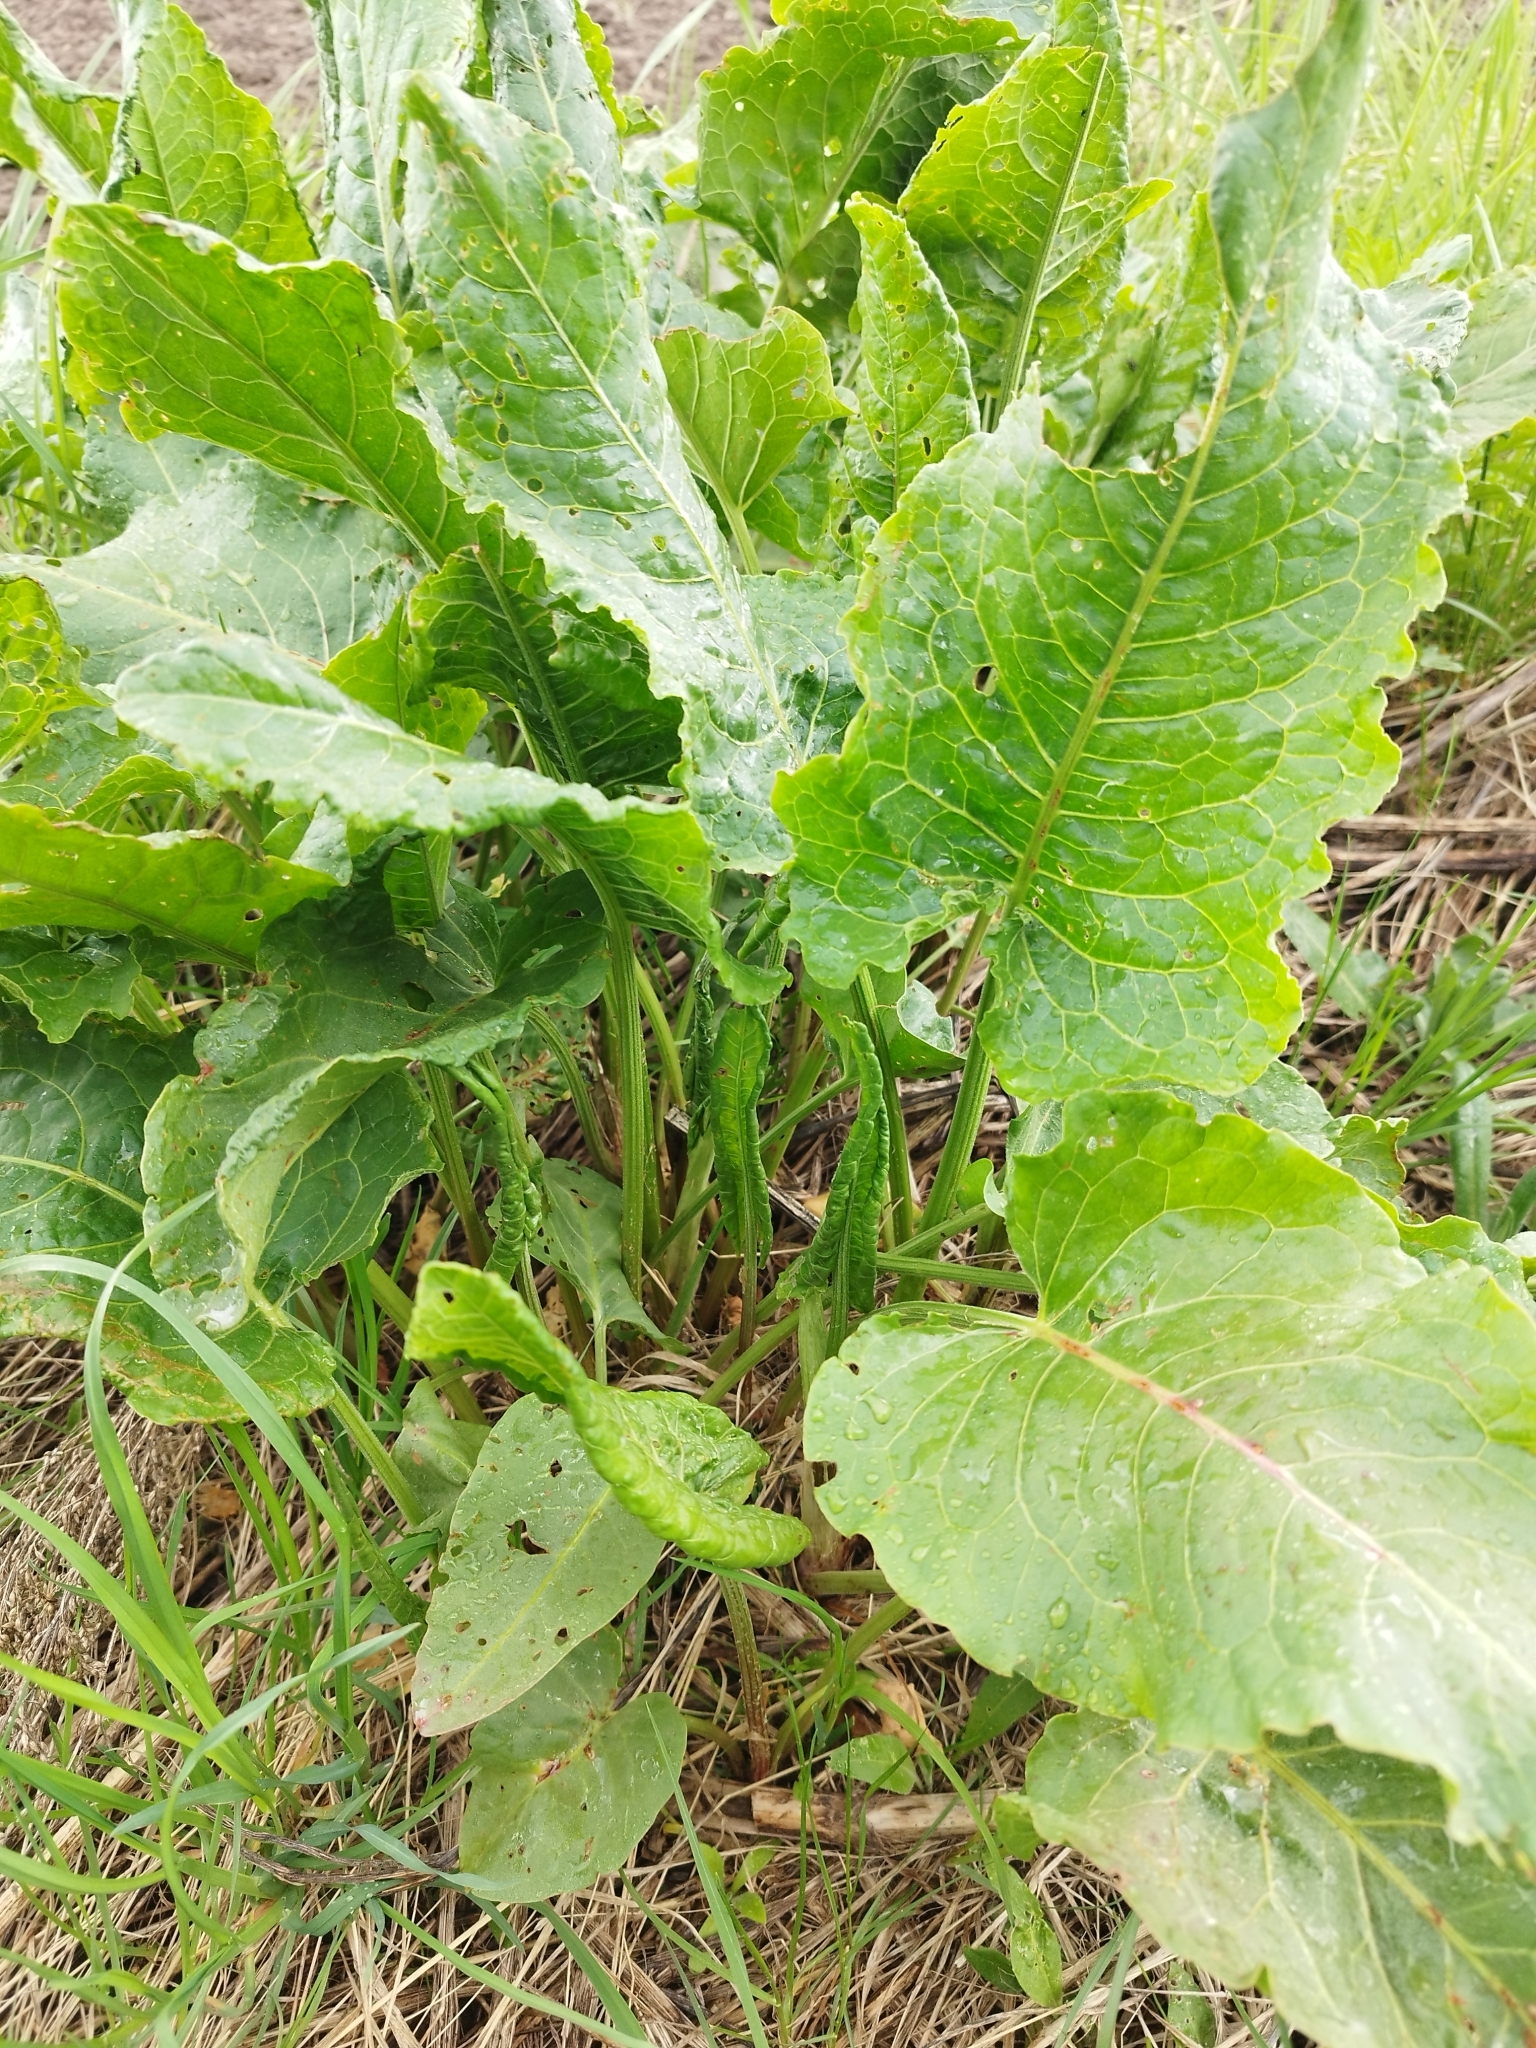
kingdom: Plantae
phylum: Tracheophyta
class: Magnoliopsida
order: Caryophyllales
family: Polygonaceae
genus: Rumex
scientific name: Rumex confertus
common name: Russian dock
